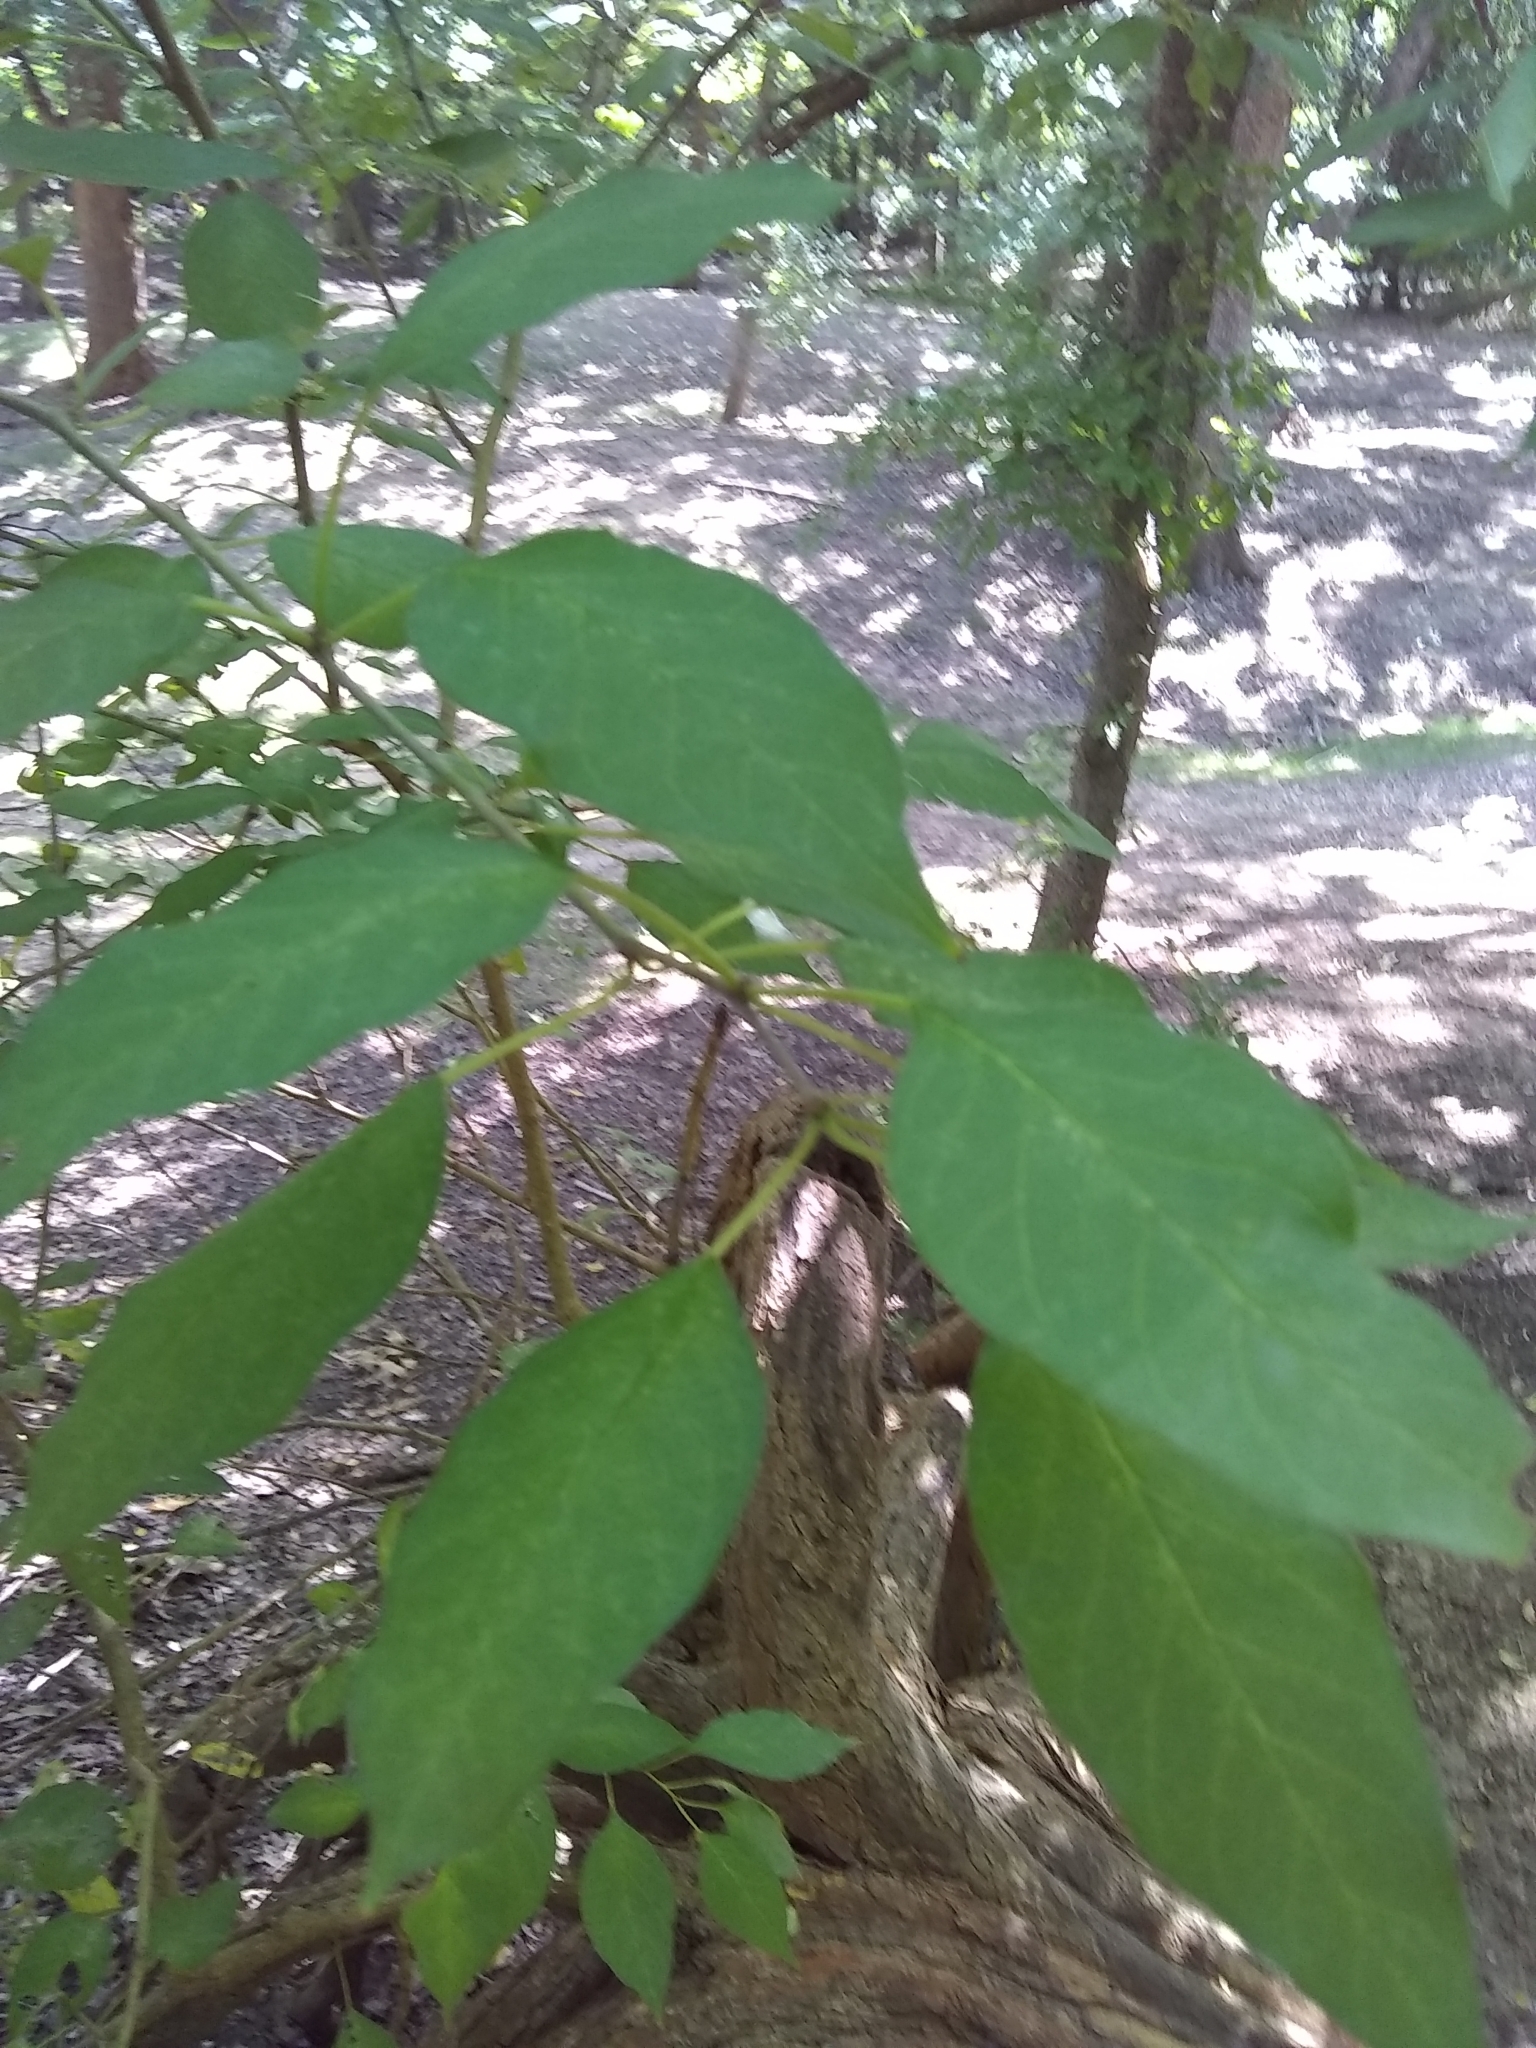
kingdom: Plantae
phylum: Tracheophyta
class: Magnoliopsida
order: Rosales
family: Moraceae
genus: Maclura
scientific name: Maclura pomifera
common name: Osage-orange
